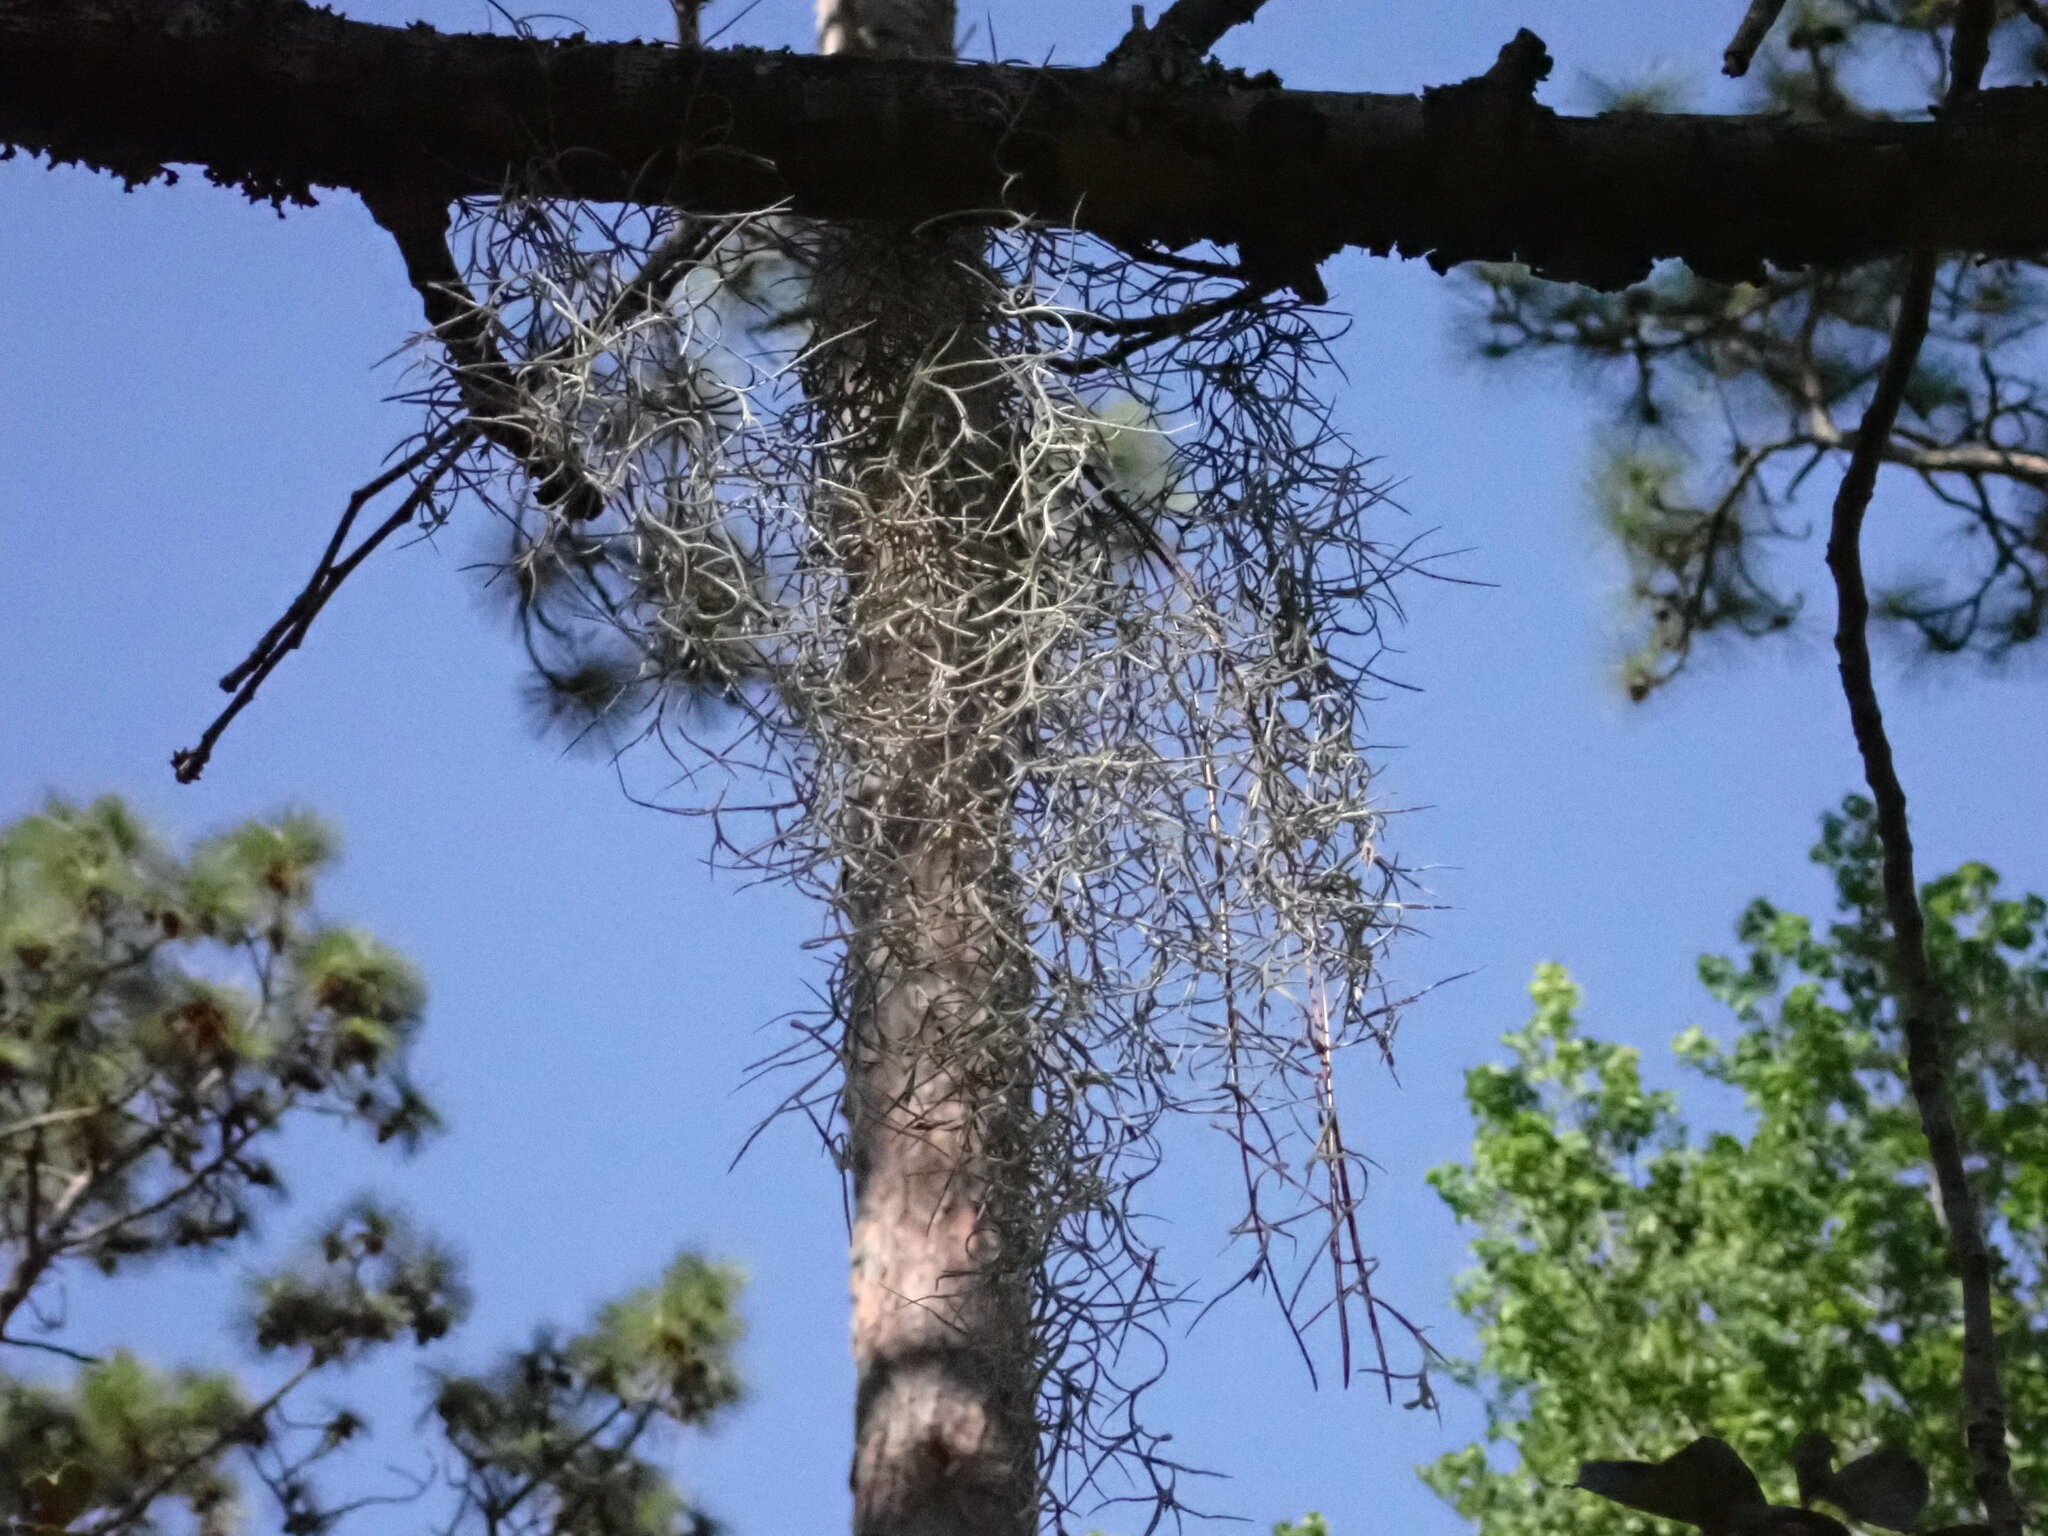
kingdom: Plantae
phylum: Tracheophyta
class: Liliopsida
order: Poales
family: Bromeliaceae
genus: Tillandsia
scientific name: Tillandsia usneoides
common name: Spanish moss
